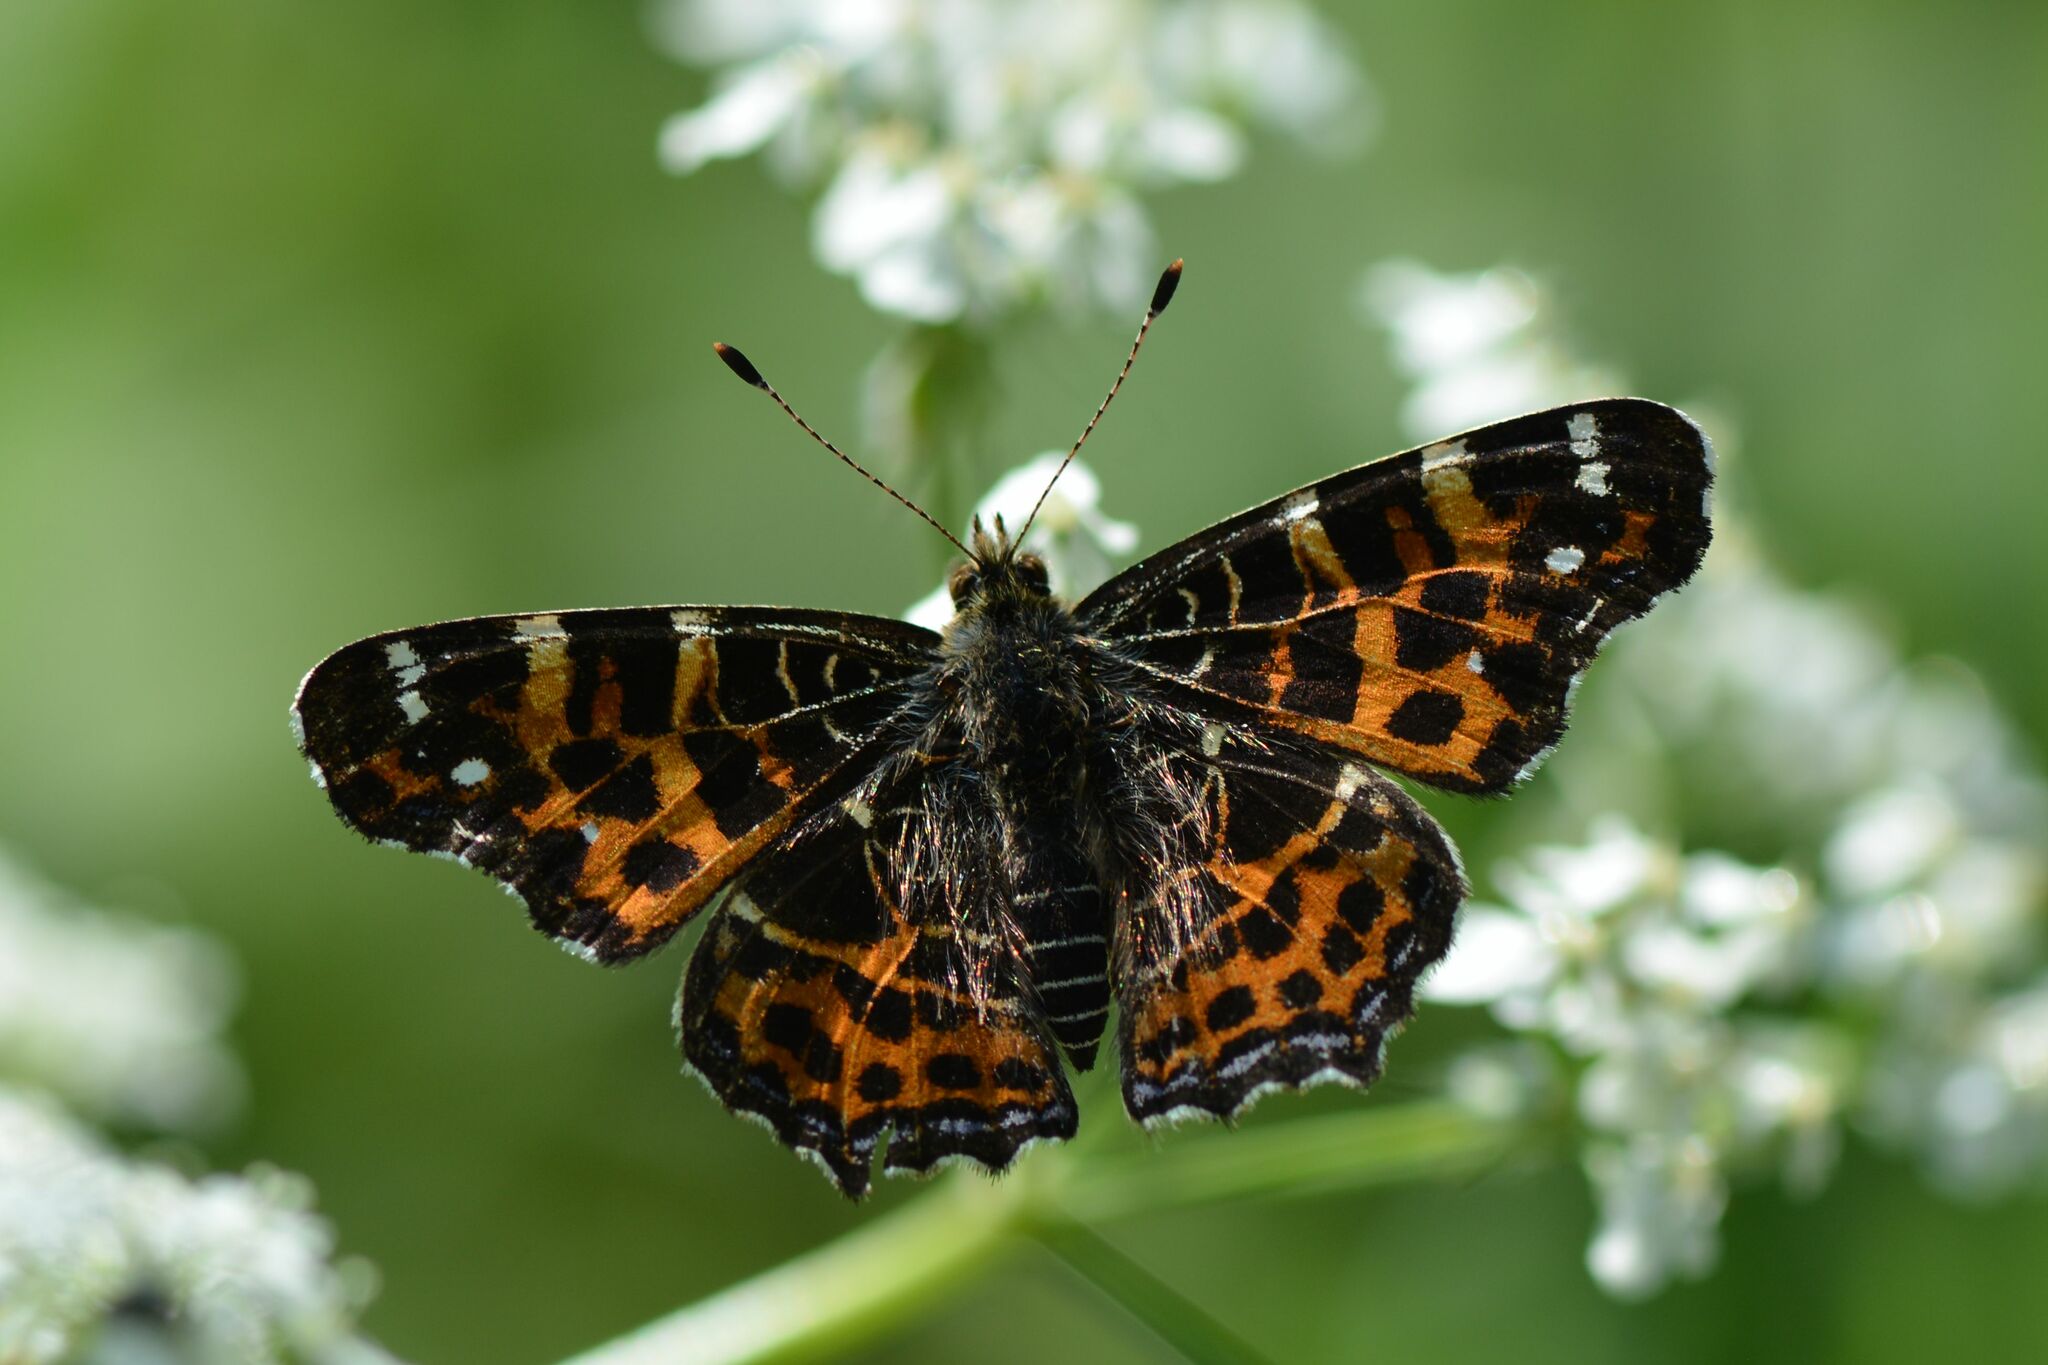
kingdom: Animalia
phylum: Arthropoda
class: Insecta
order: Lepidoptera
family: Nymphalidae
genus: Araschnia
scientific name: Araschnia levana
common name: Map butterfly
